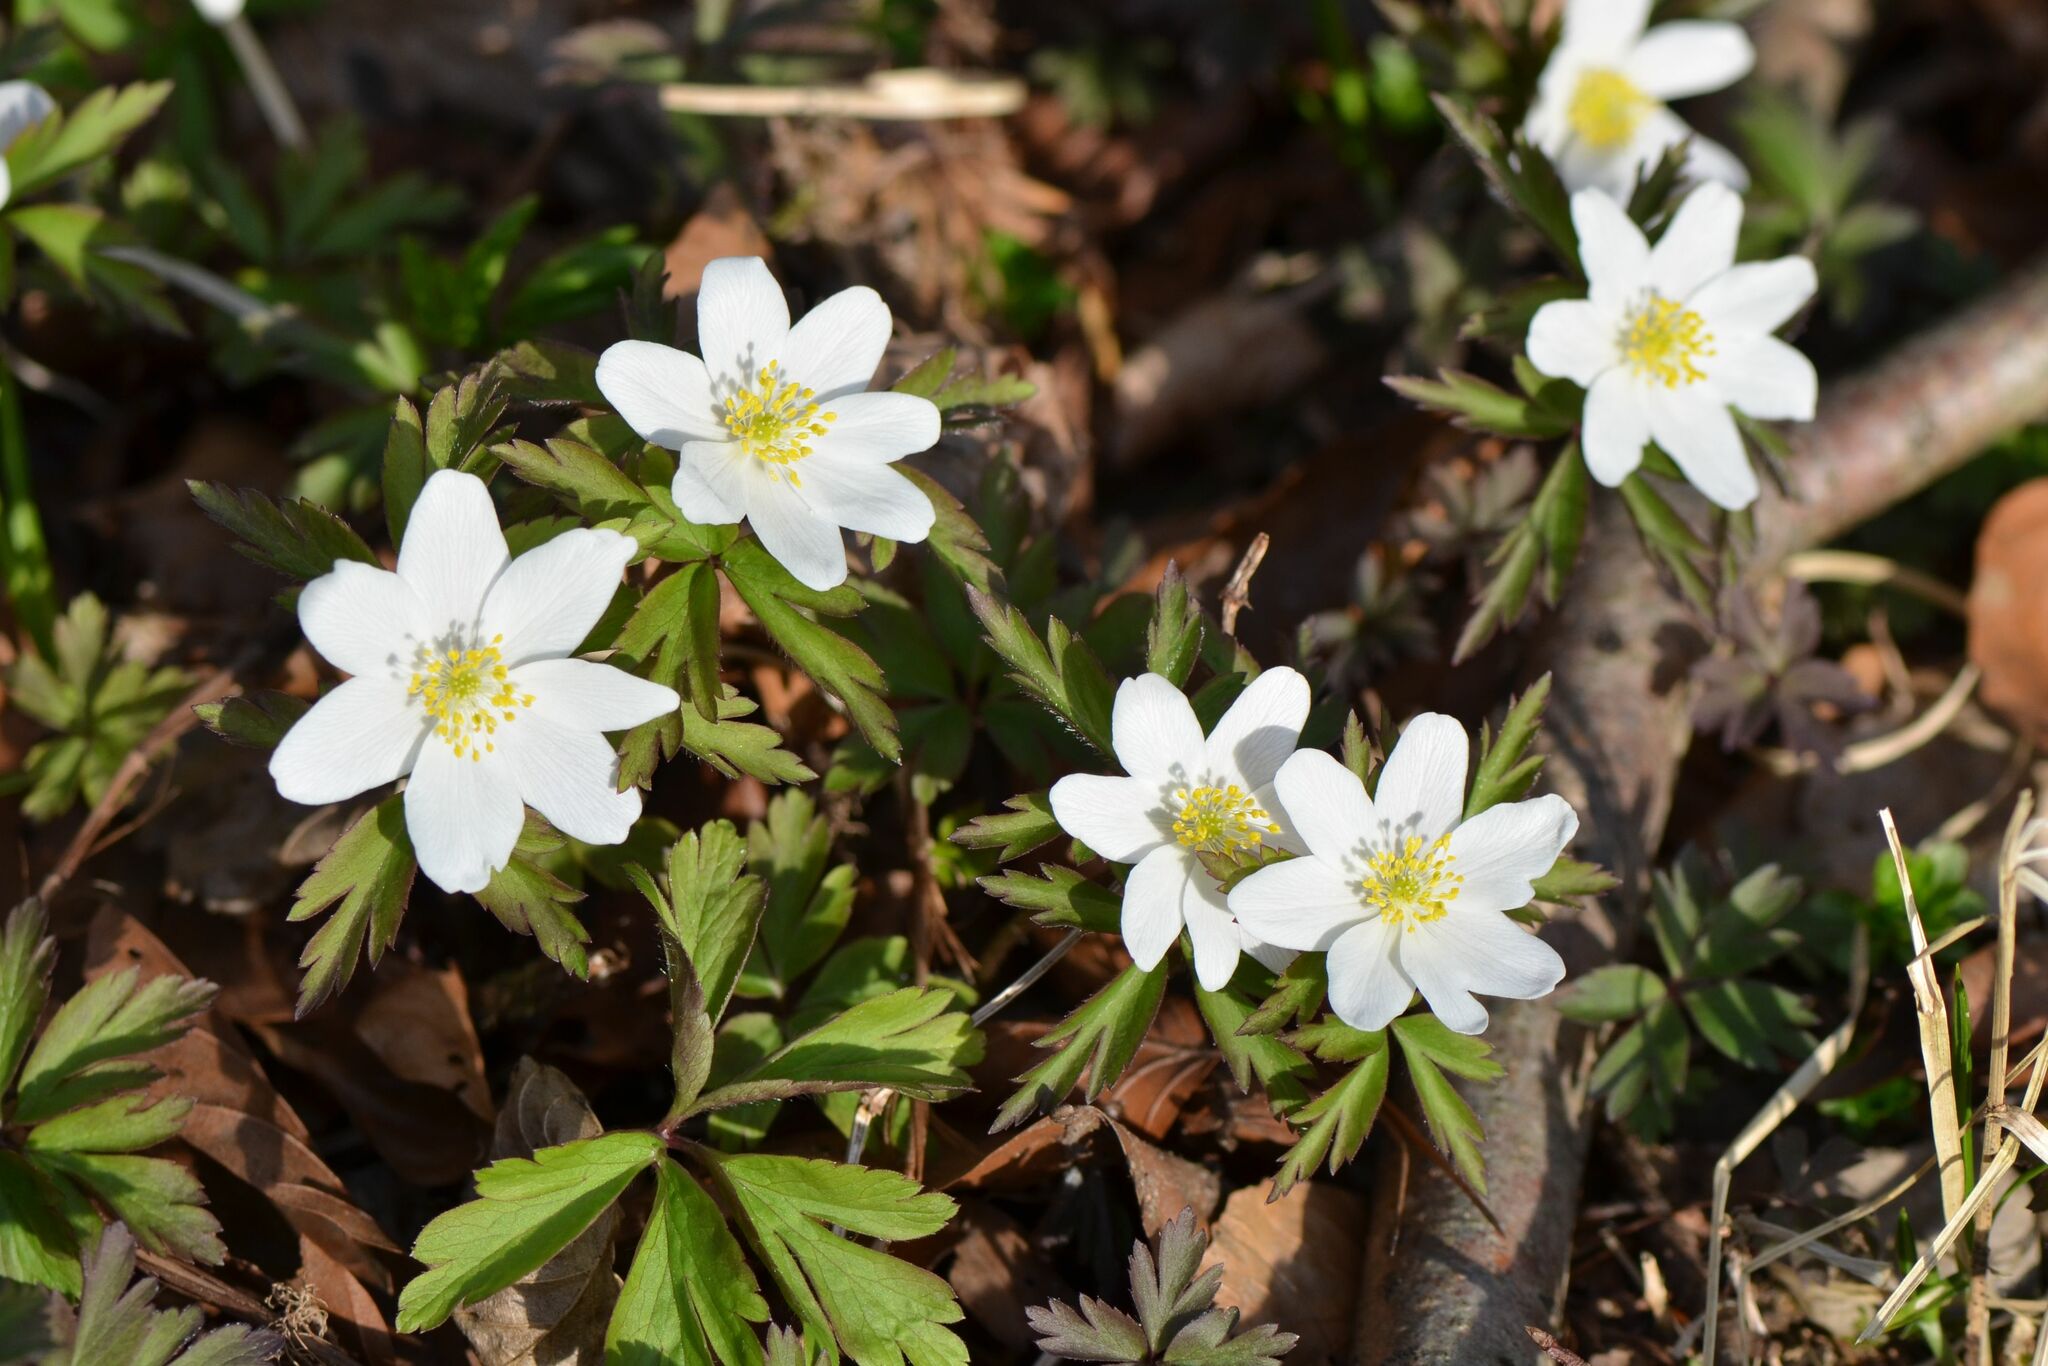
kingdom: Plantae
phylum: Tracheophyta
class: Magnoliopsida
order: Ranunculales
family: Ranunculaceae
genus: Anemone
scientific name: Anemone nemorosa
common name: Wood anemone
